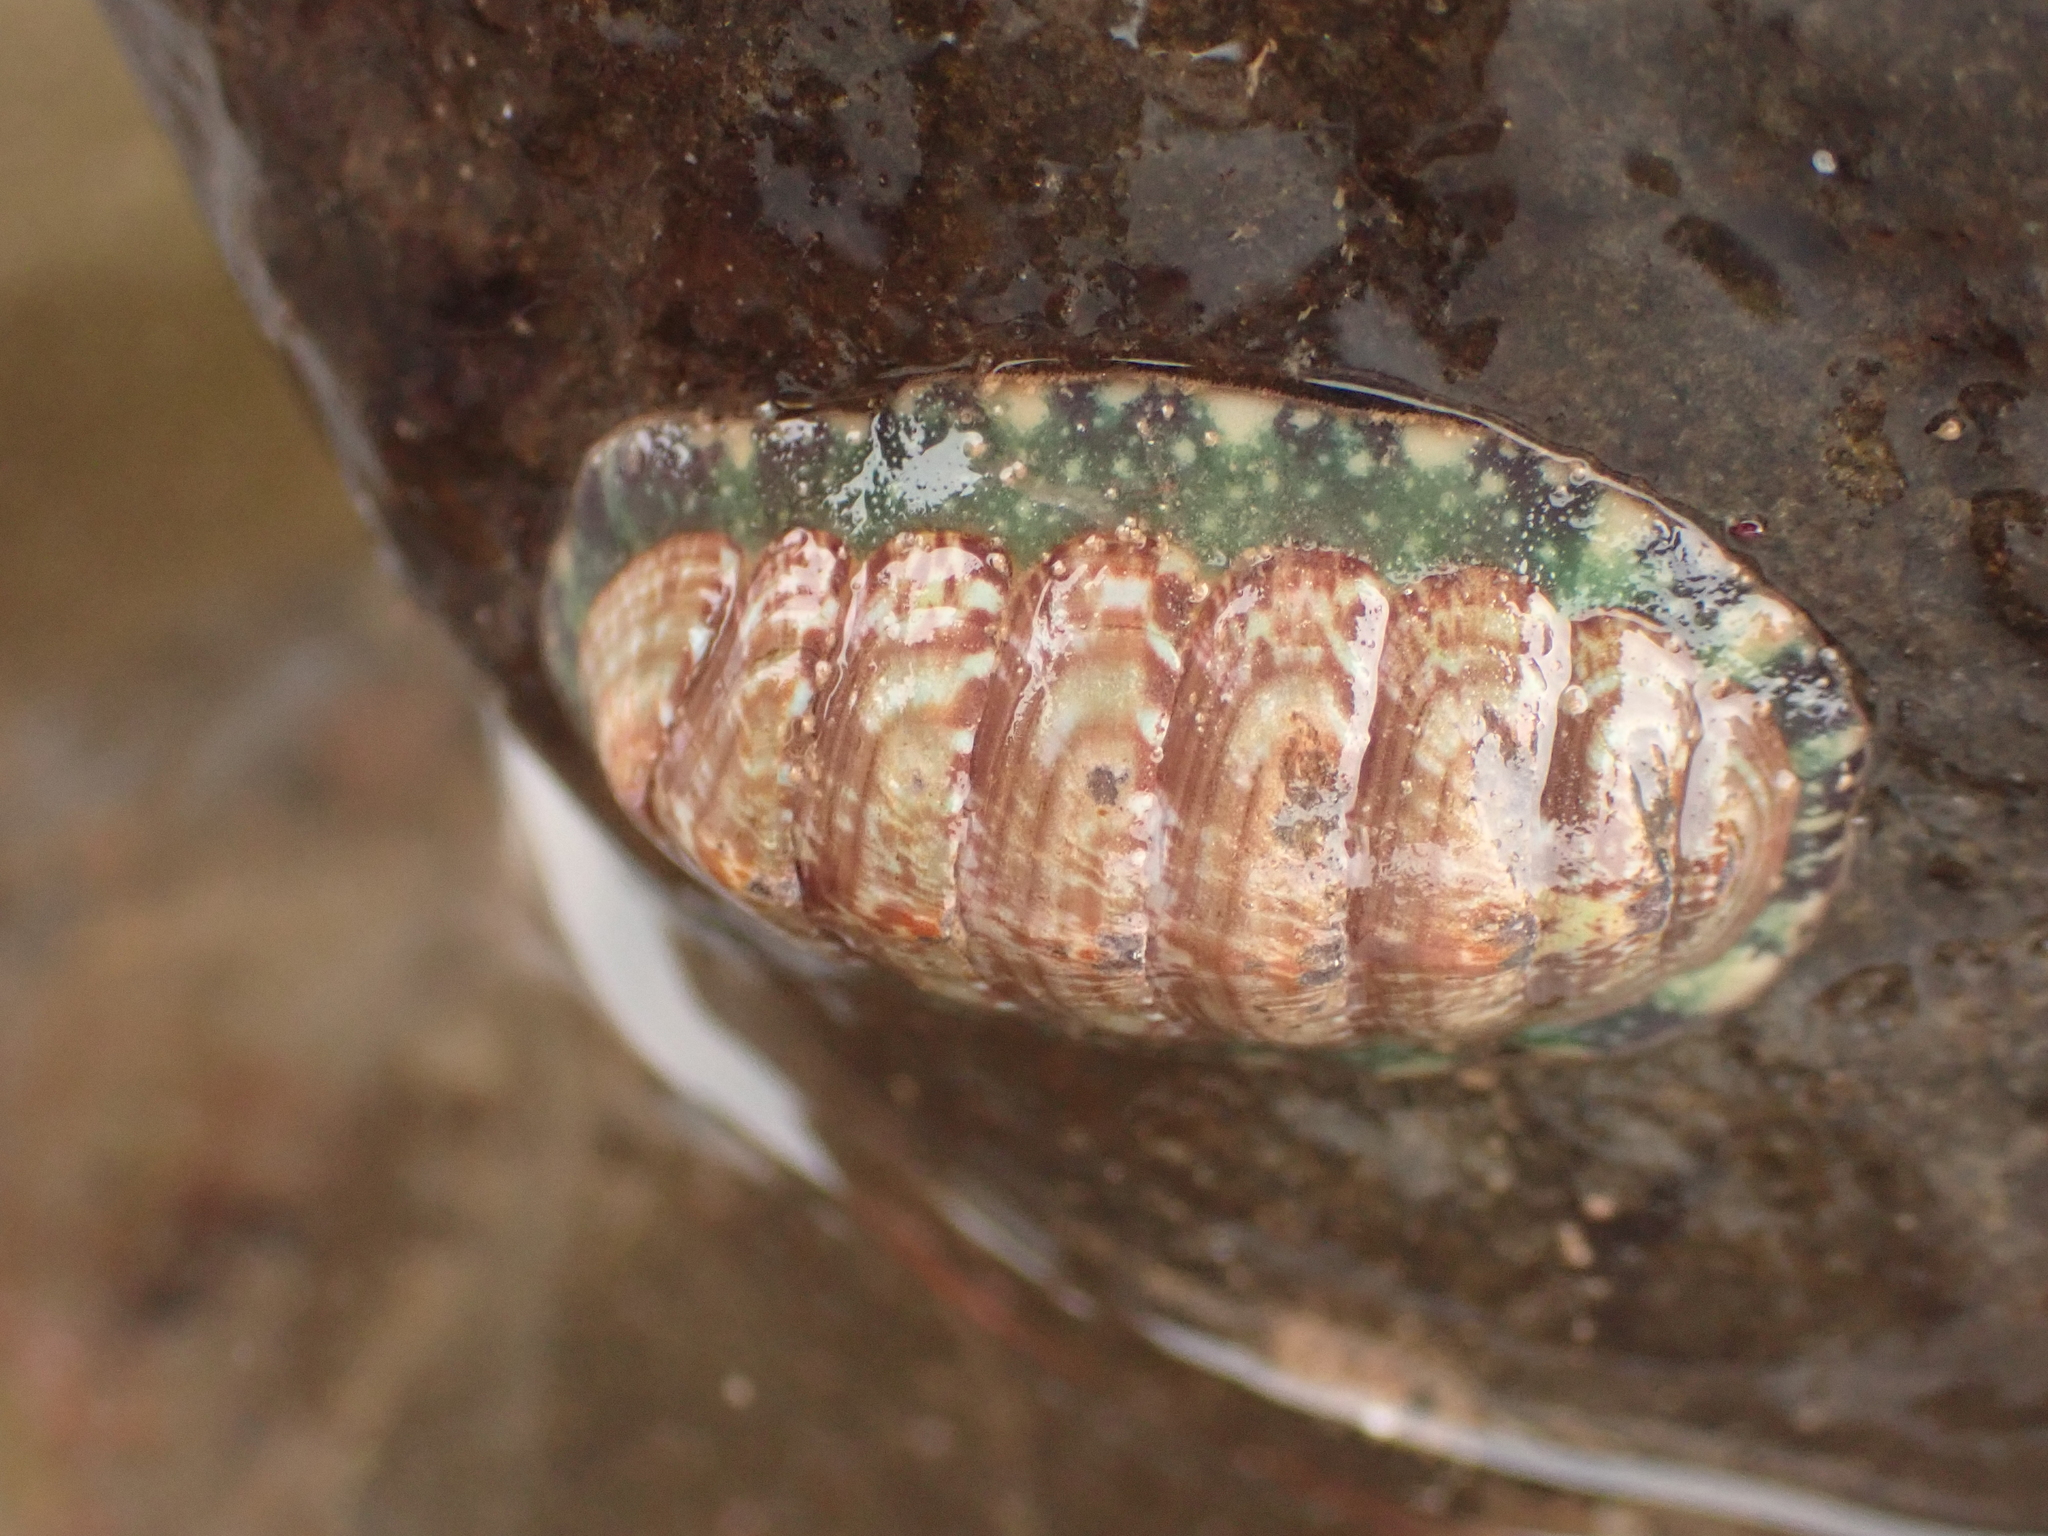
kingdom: Animalia
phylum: Mollusca
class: Polyplacophora
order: Chitonida
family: Tonicellidae
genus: Tonicella
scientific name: Tonicella marmorea
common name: Lined red chiton
